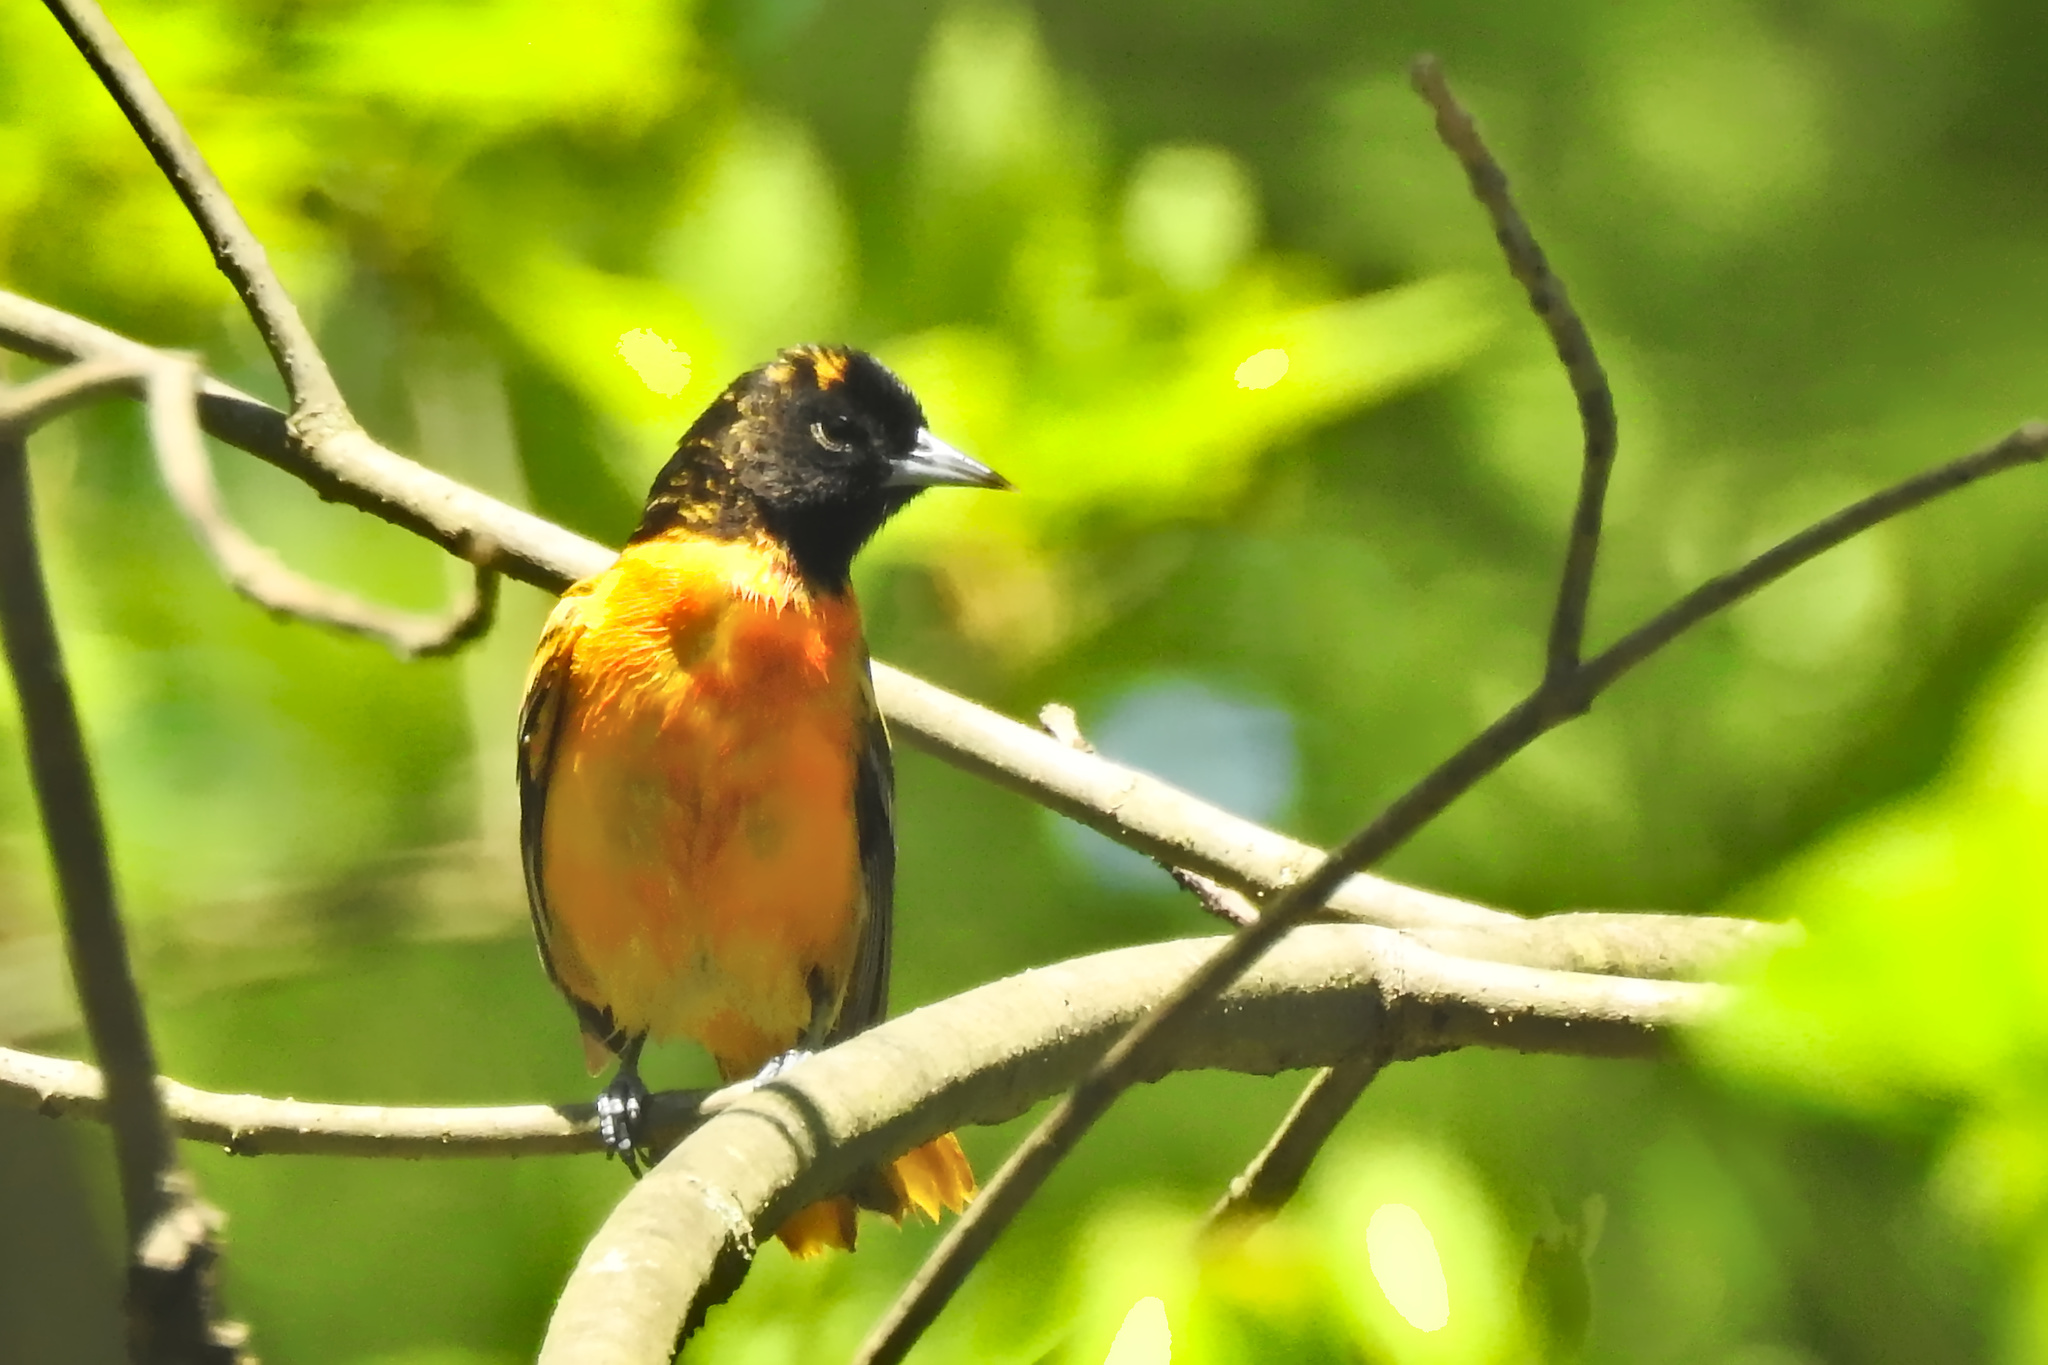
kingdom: Animalia
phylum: Chordata
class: Aves
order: Passeriformes
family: Icteridae
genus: Icterus
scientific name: Icterus galbula
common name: Baltimore oriole
